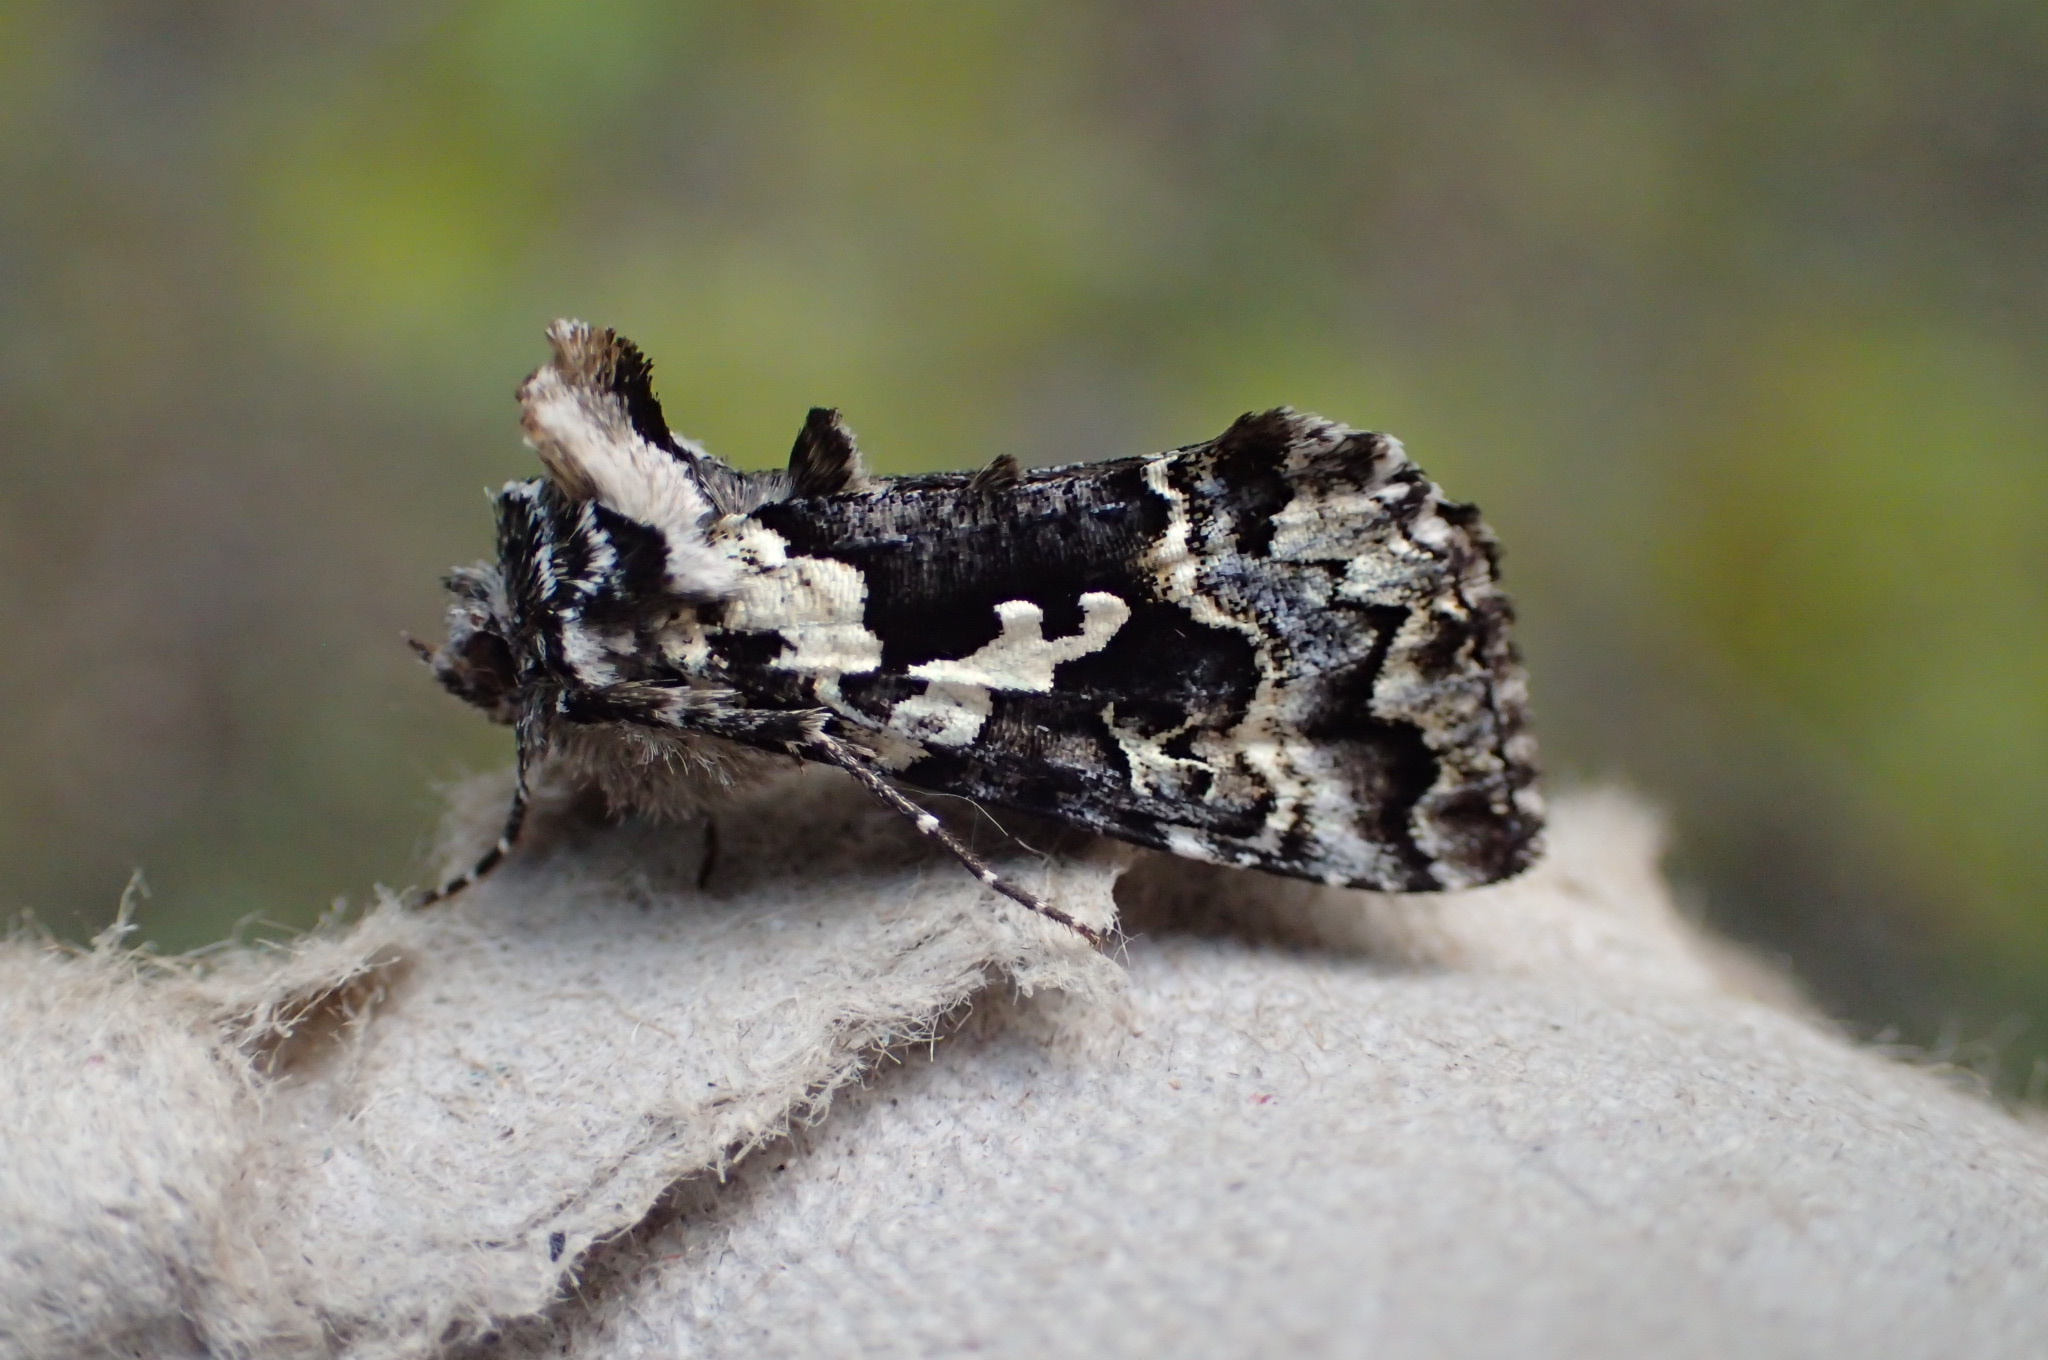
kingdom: Animalia
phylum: Arthropoda
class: Insecta
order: Lepidoptera
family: Noctuidae
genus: Syngrapha
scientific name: Syngrapha rectangula
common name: Angulated cutworm
